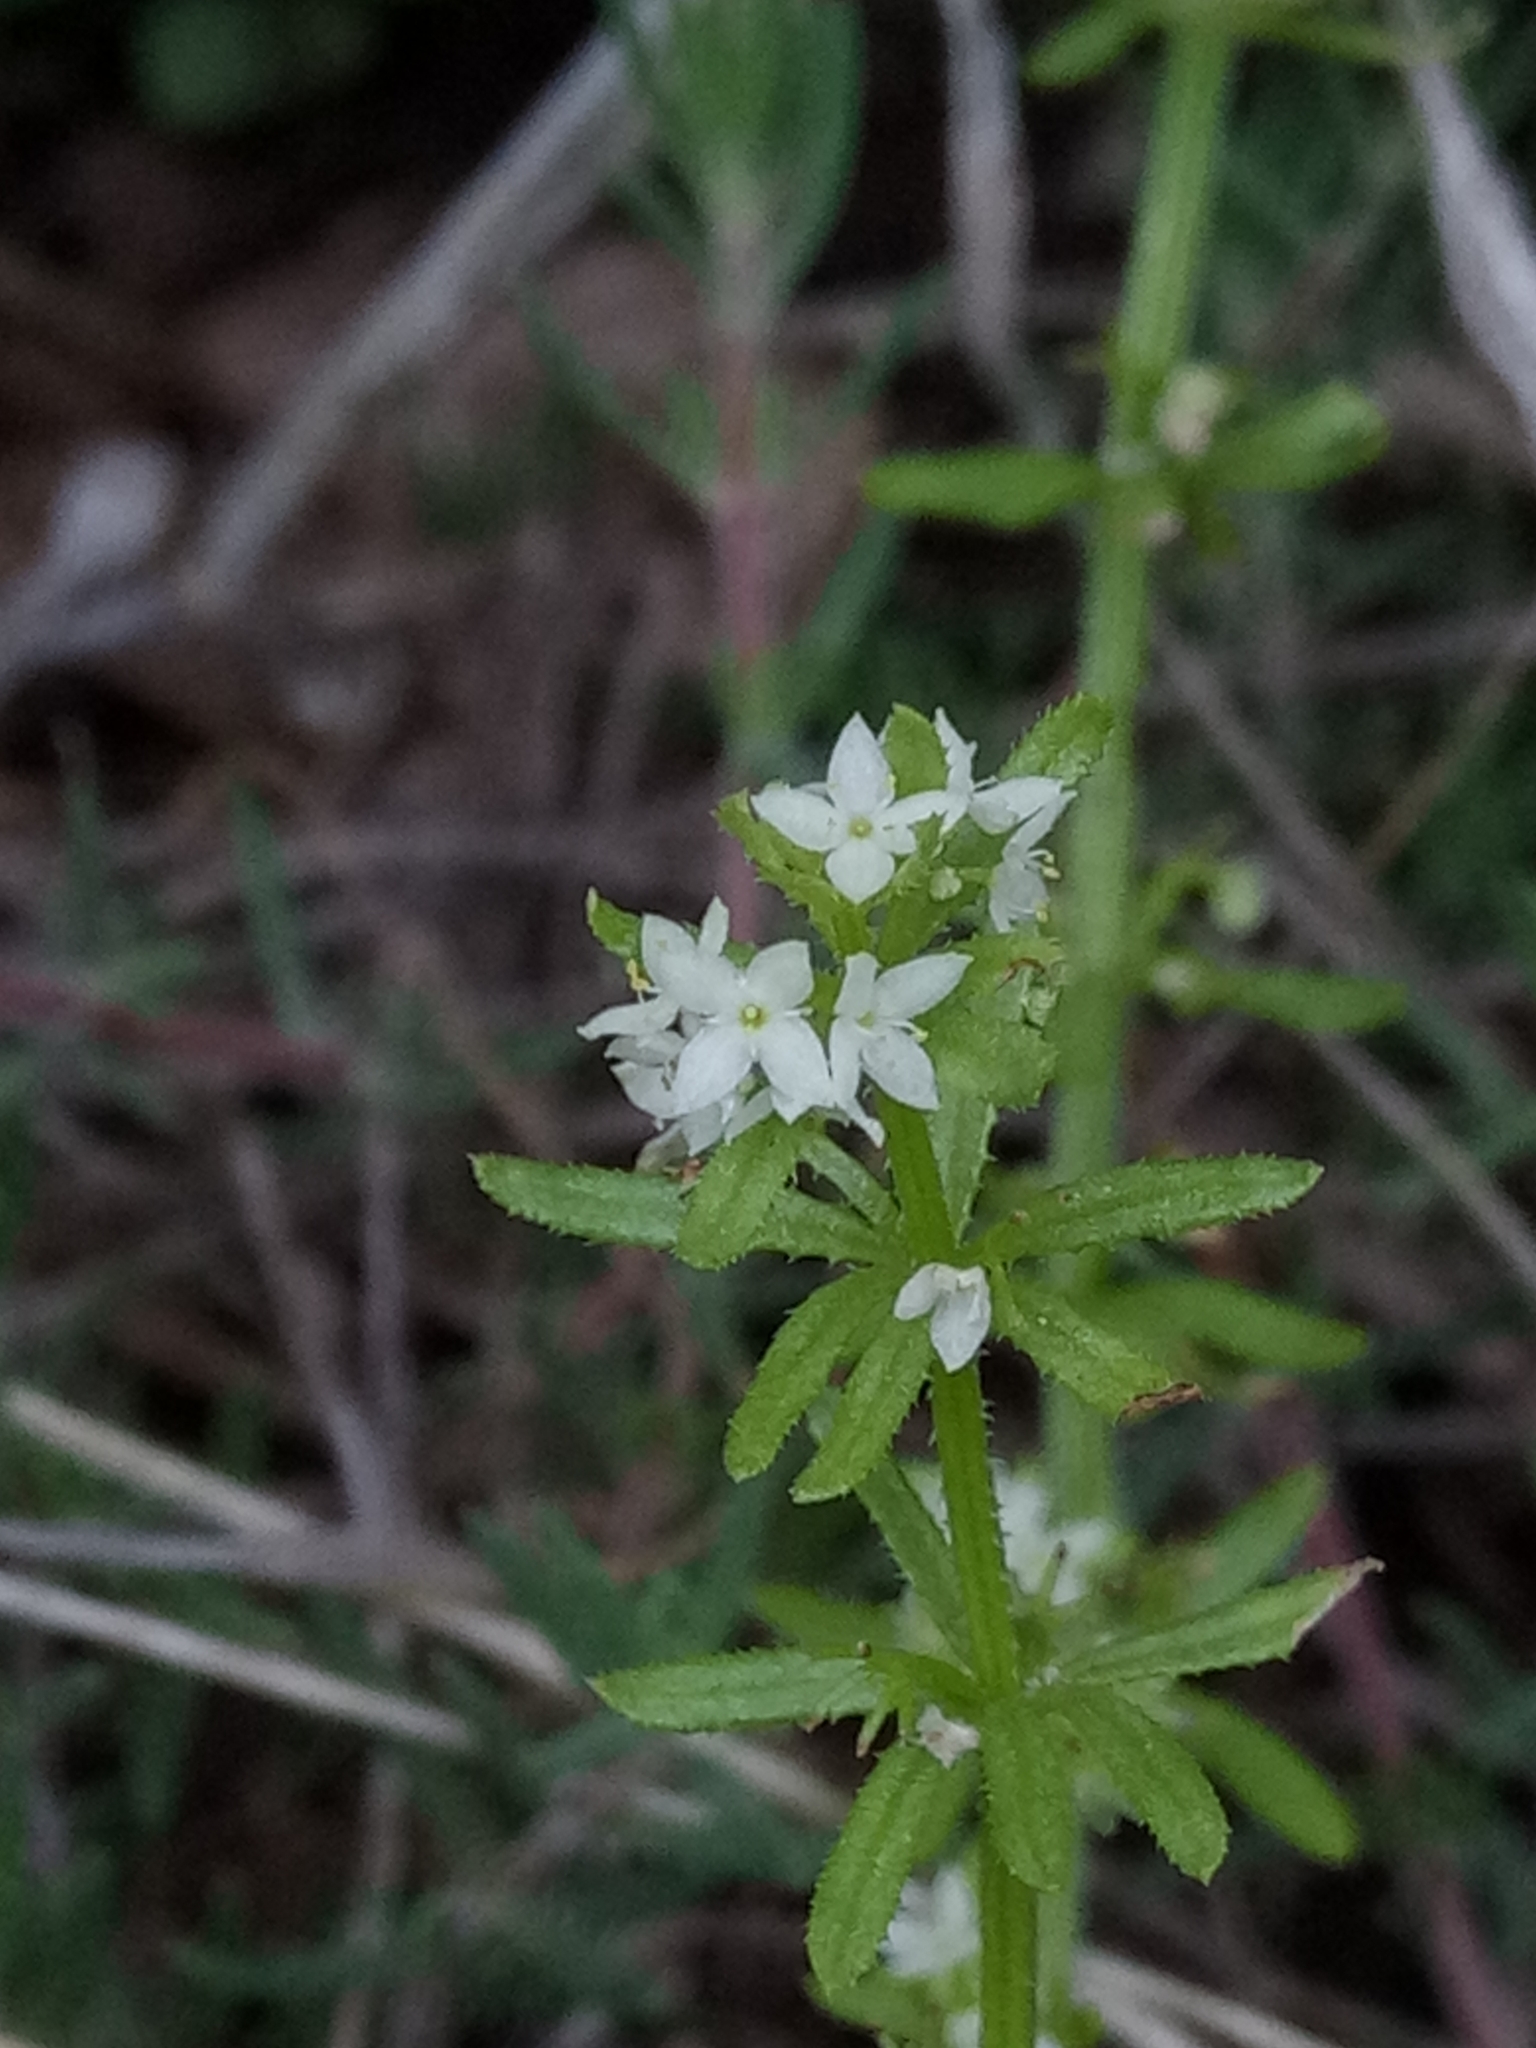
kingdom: Plantae
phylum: Tracheophyta
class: Magnoliopsida
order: Gentianales
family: Rubiaceae
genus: Galium
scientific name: Galium verrucosum
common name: Warty bedstraw
